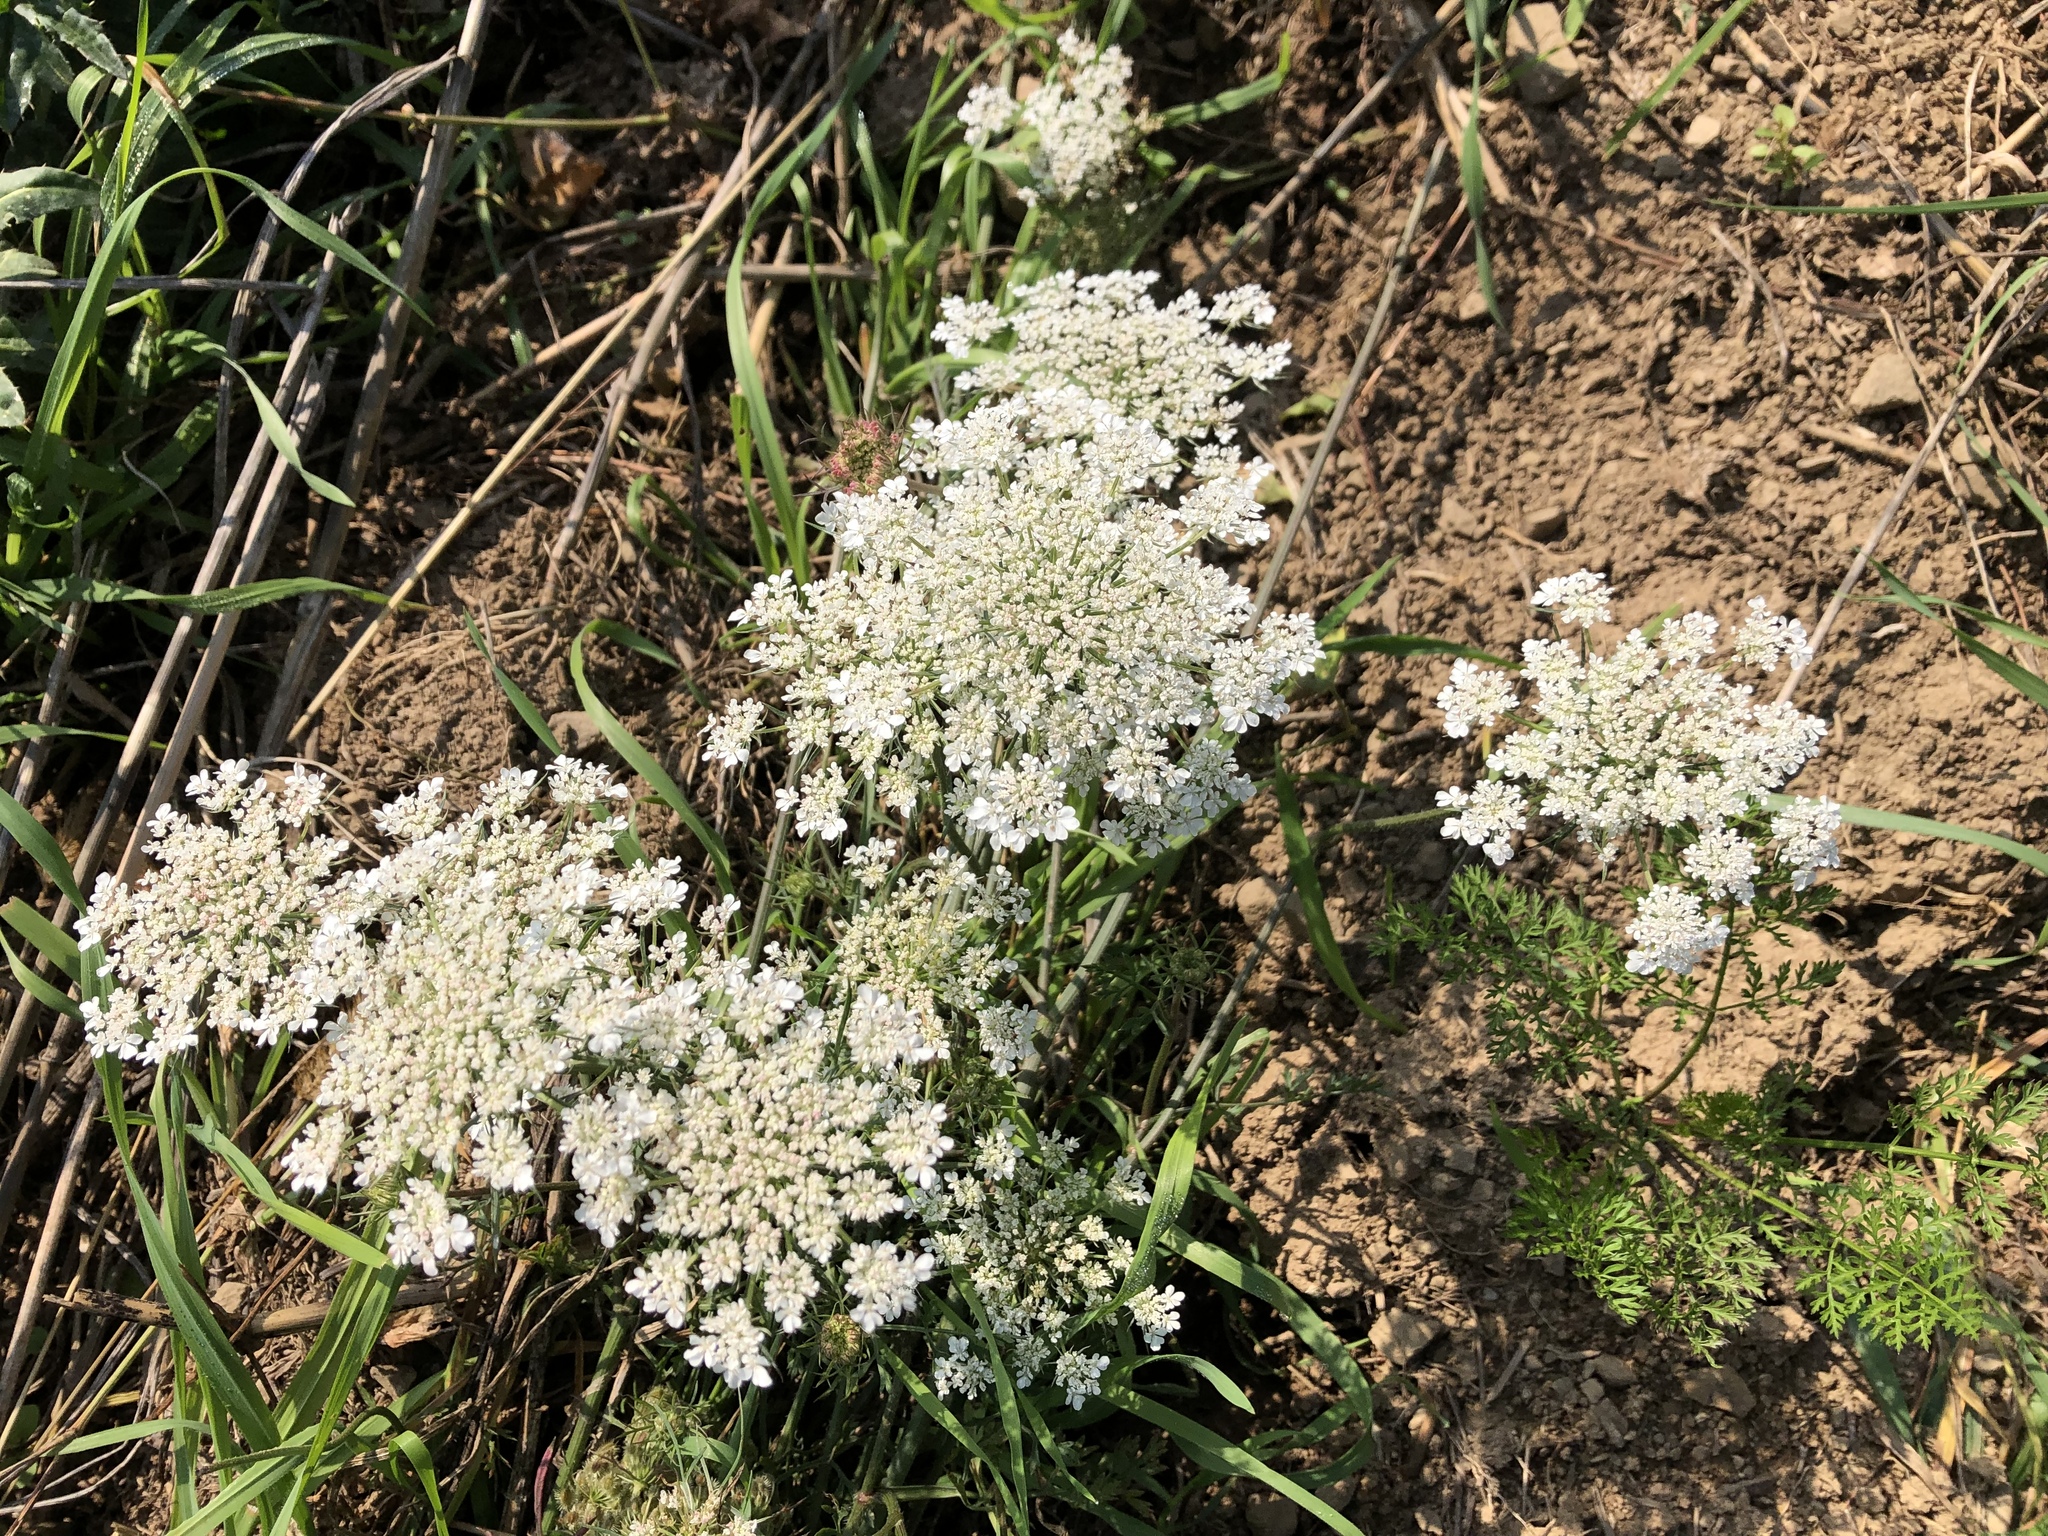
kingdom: Plantae
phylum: Tracheophyta
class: Magnoliopsida
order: Apiales
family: Apiaceae
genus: Daucus
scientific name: Daucus carota
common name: Wild carrot
